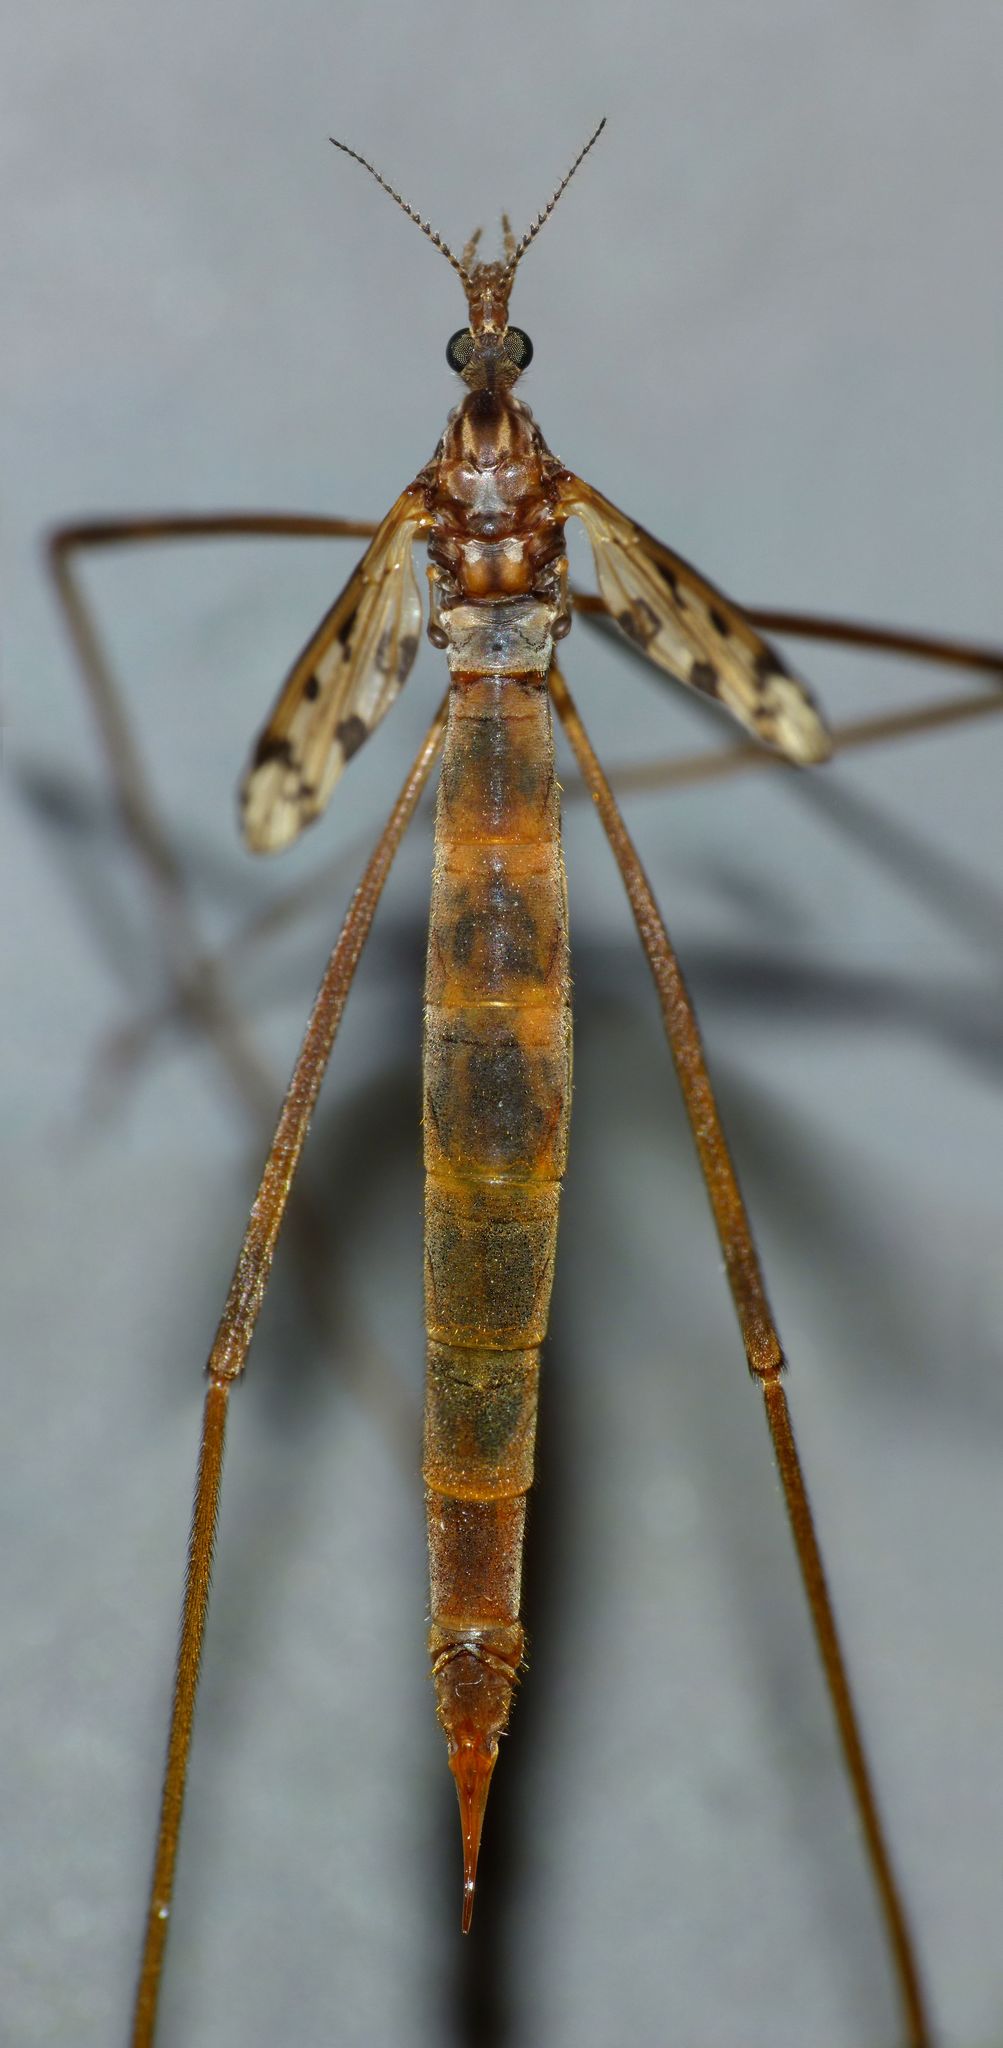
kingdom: Animalia
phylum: Arthropoda
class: Insecta
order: Diptera
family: Limoniidae
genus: Gynoplistia
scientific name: Gynoplistia notata
